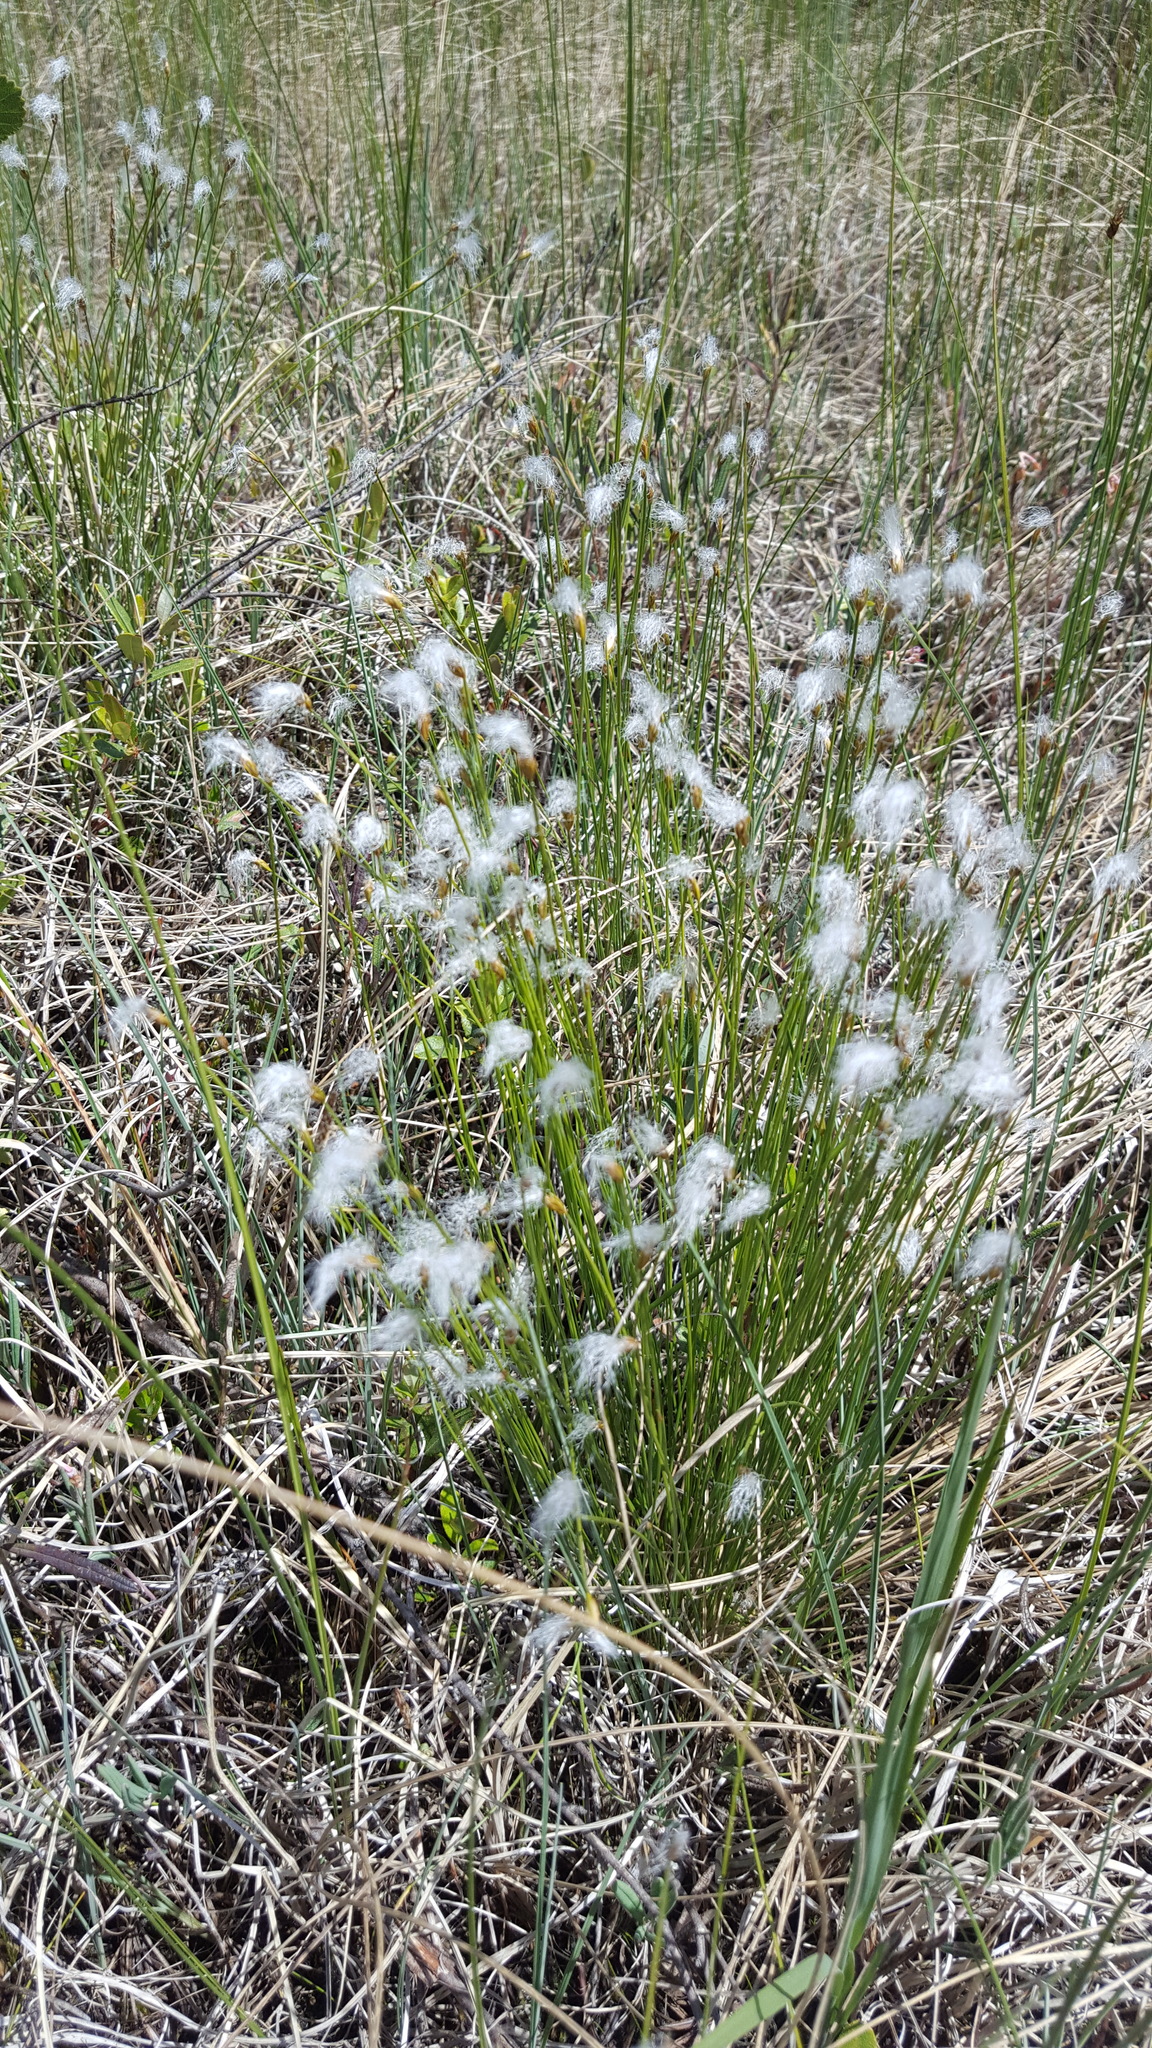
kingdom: Plantae
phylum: Tracheophyta
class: Liliopsida
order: Poales
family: Cyperaceae
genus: Trichophorum
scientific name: Trichophorum alpinum
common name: Alpine bulrush
